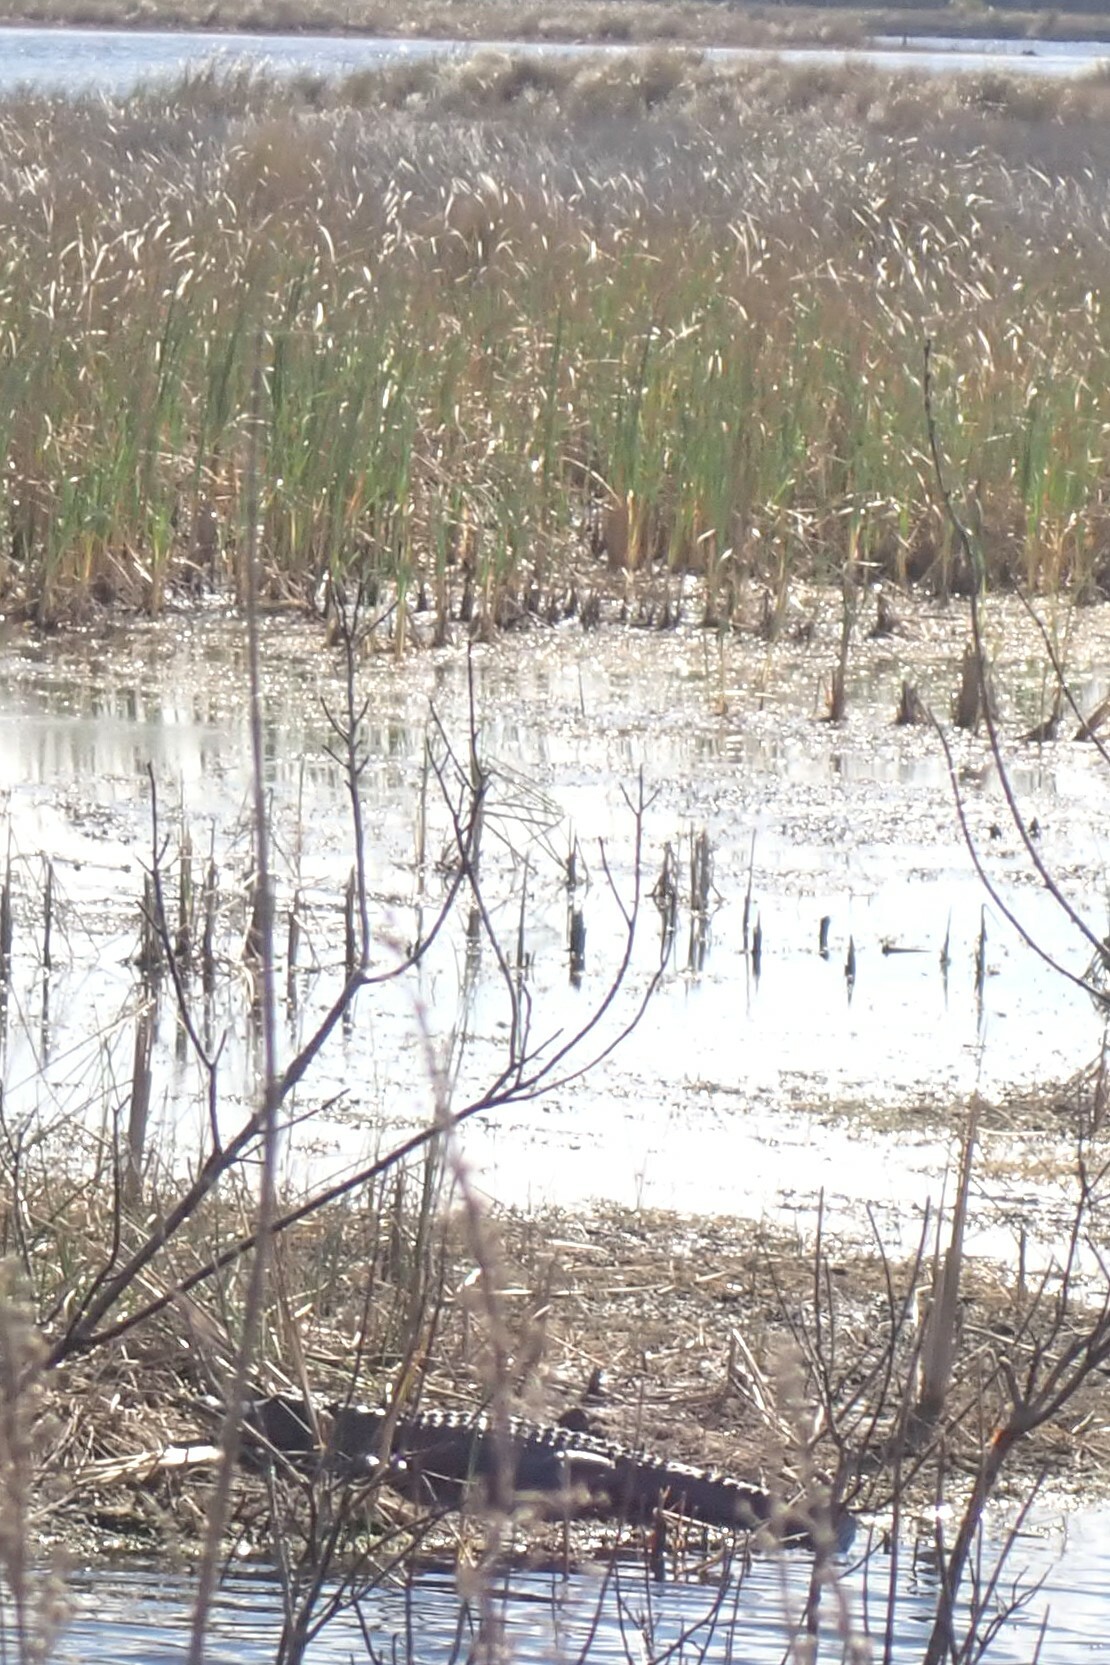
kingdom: Animalia
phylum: Chordata
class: Crocodylia
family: Alligatoridae
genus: Alligator
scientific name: Alligator mississippiensis
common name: American alligator
